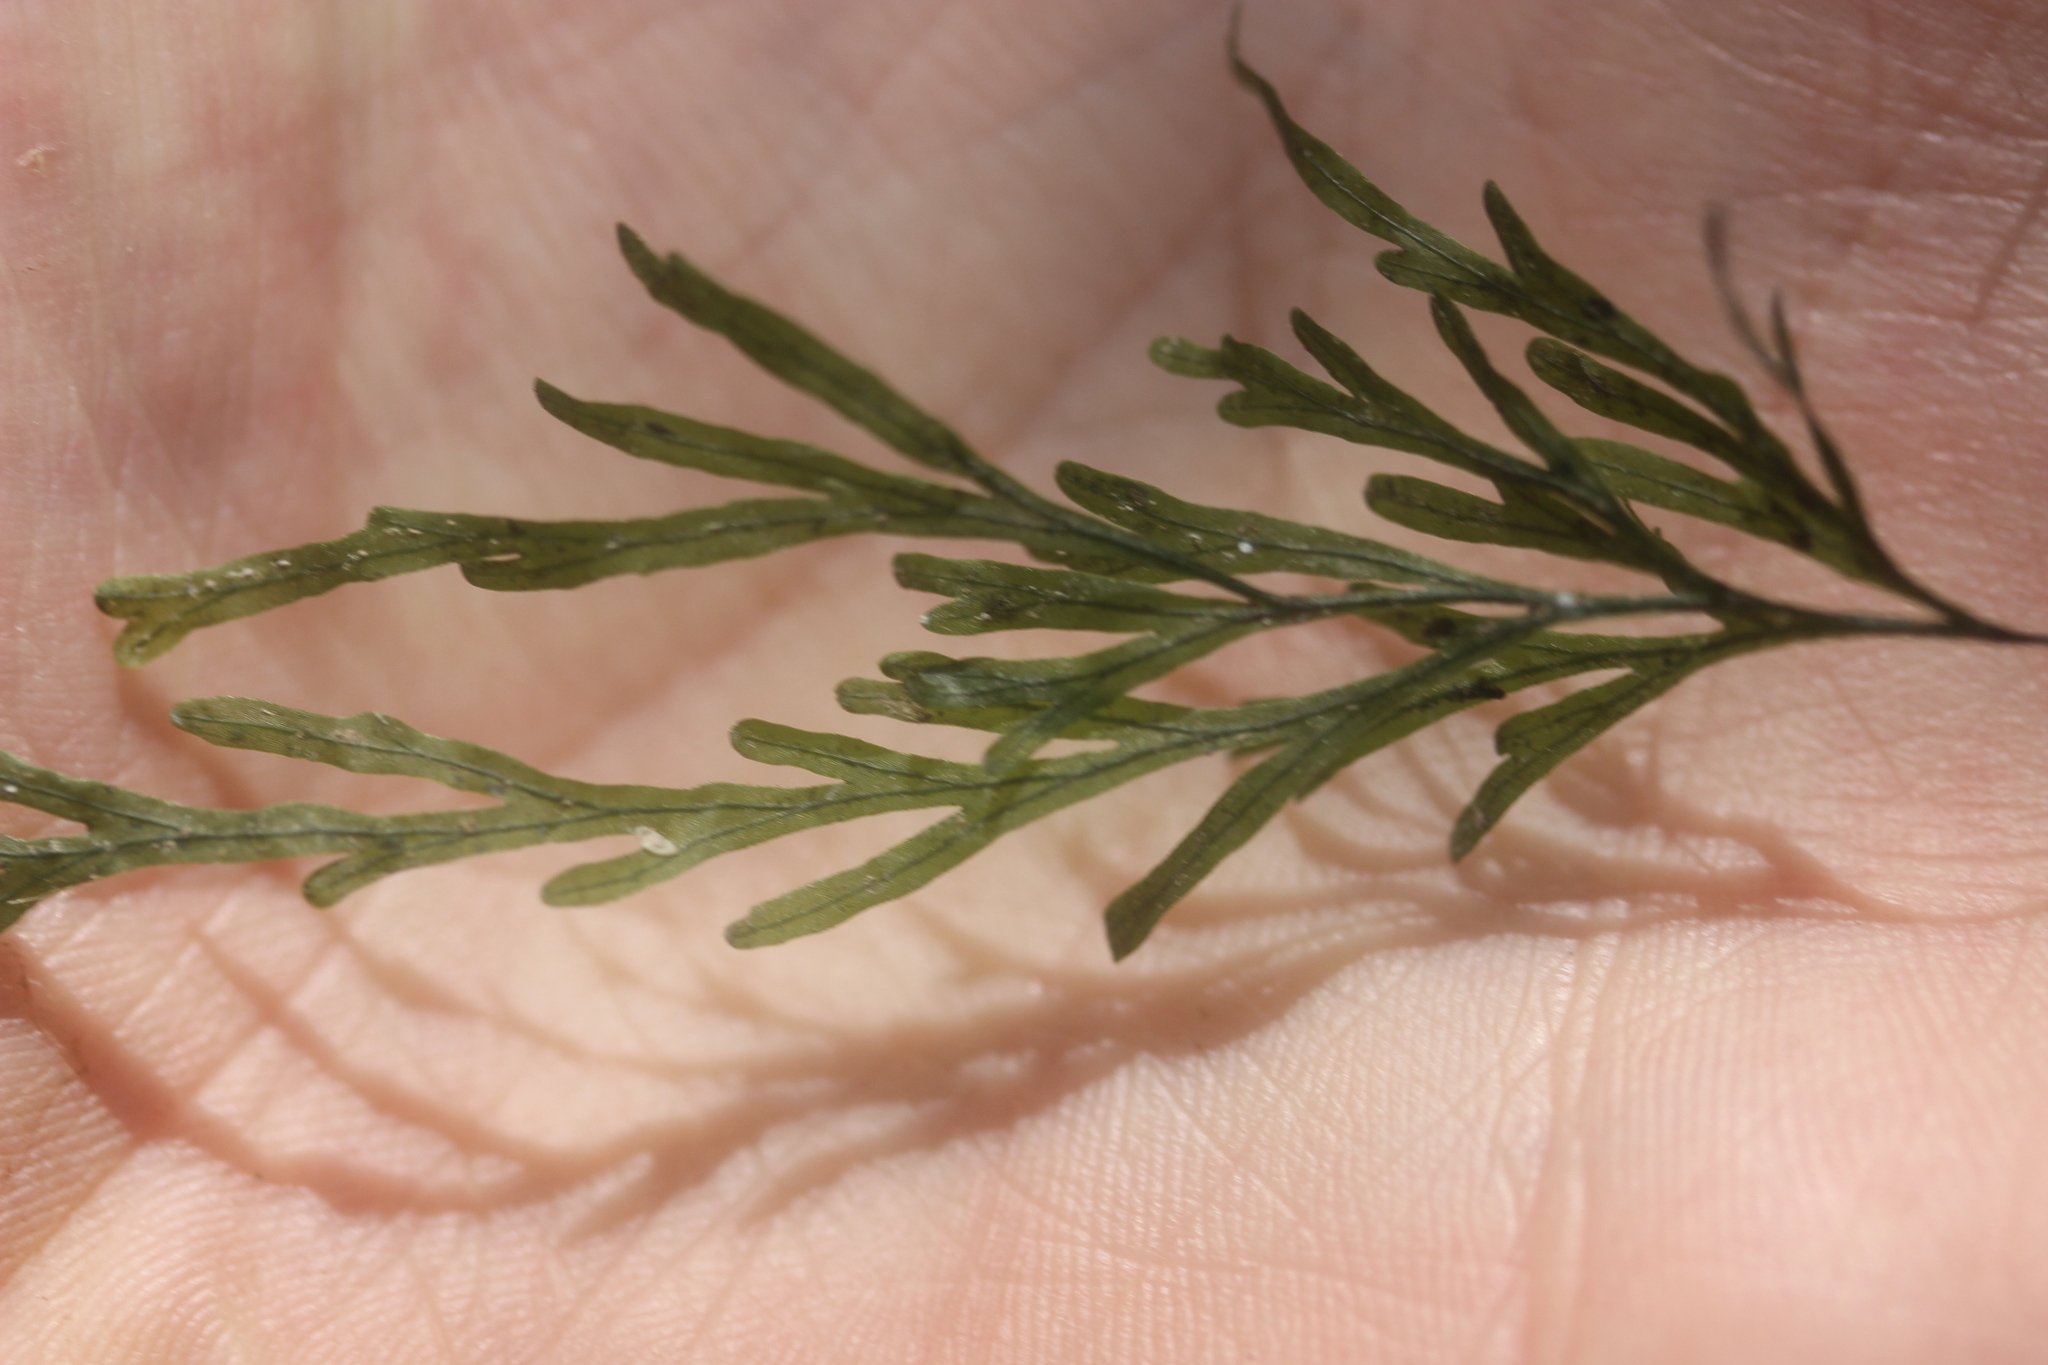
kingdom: Plantae
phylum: Tracheophyta
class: Polypodiopsida
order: Hymenophyllales
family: Hymenophyllaceae
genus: Polyphlebium
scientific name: Polyphlebium endlicherianum
